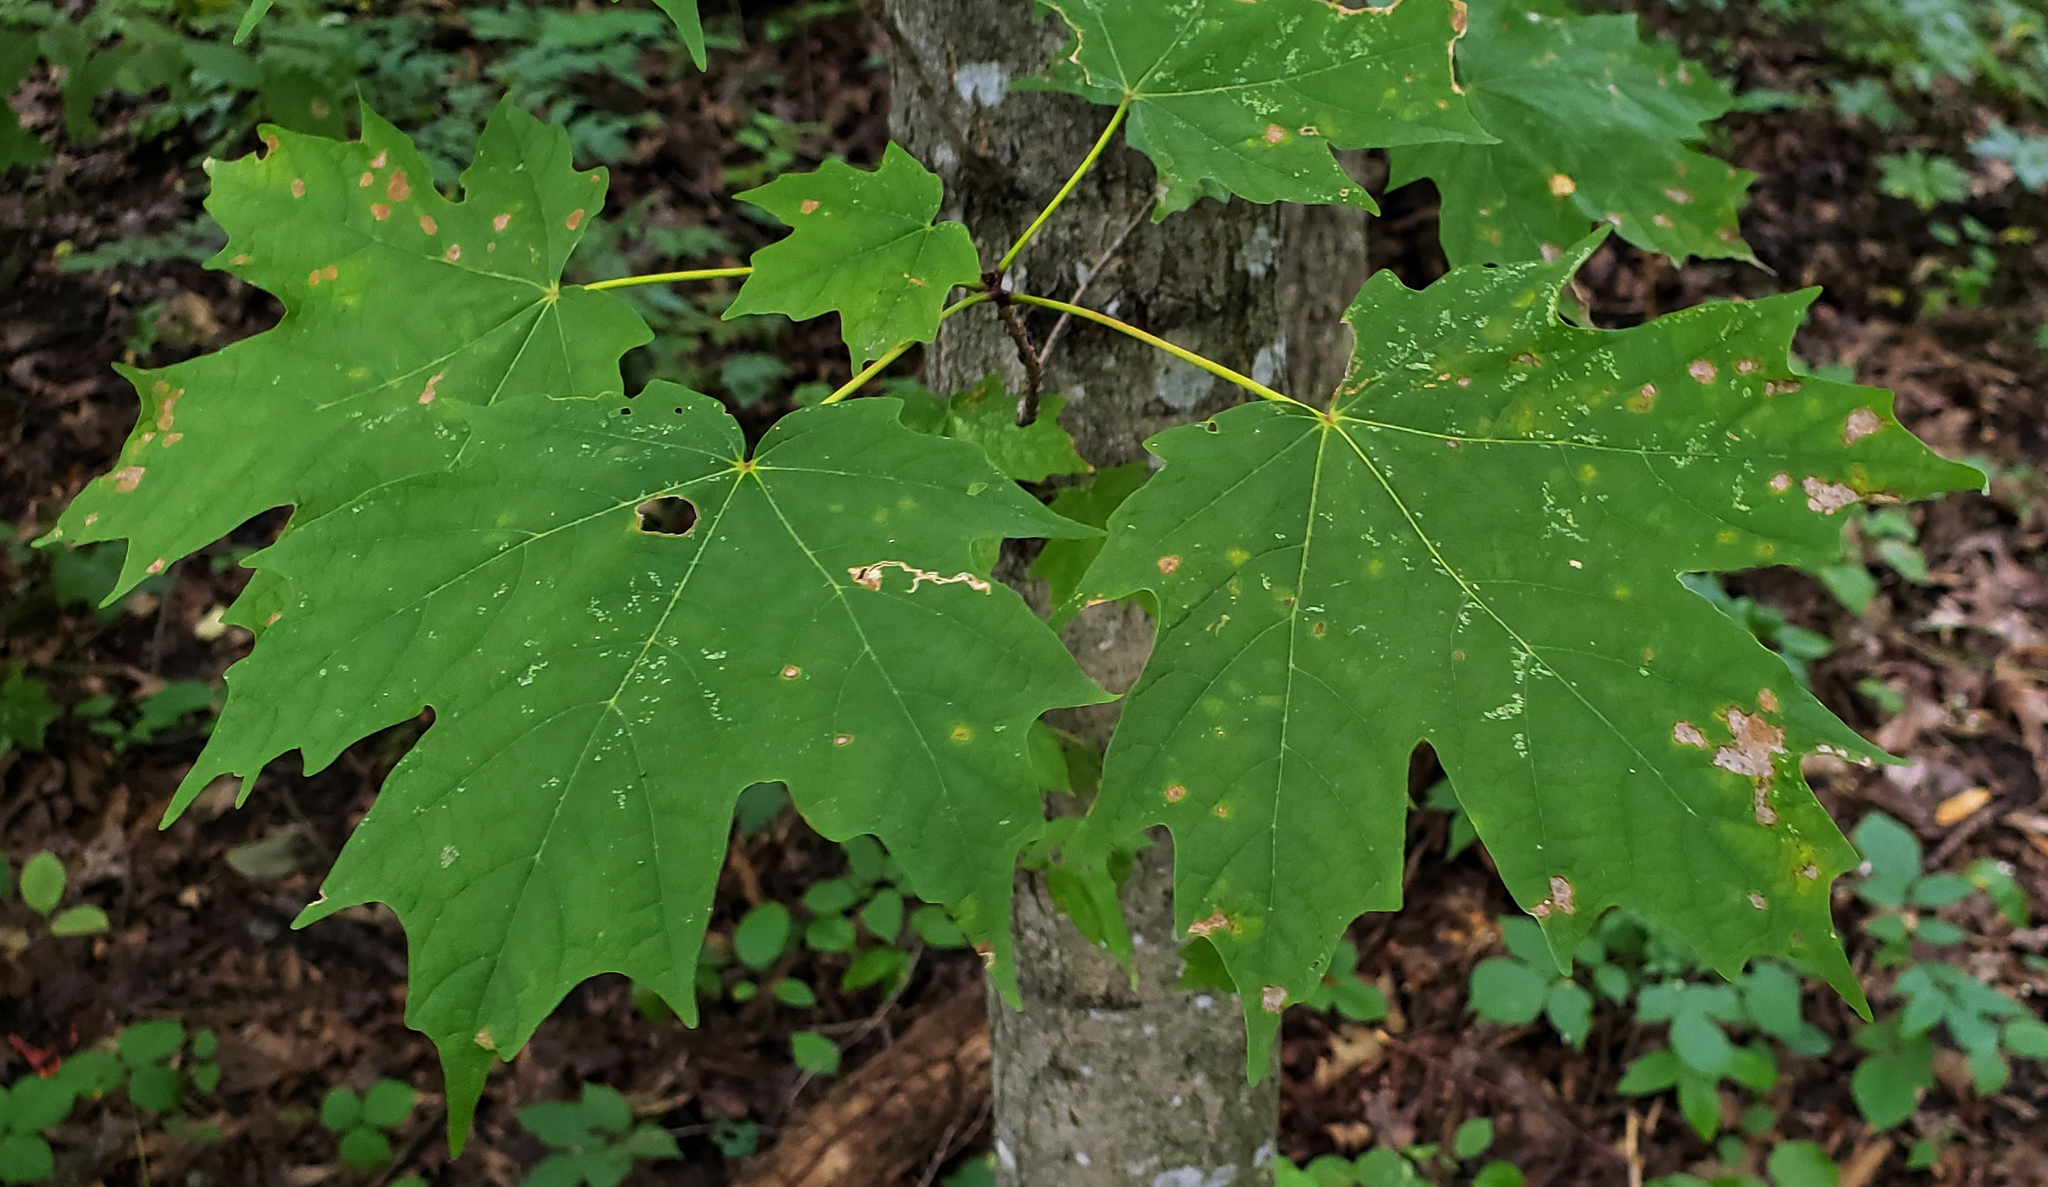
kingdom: Plantae
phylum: Tracheophyta
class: Magnoliopsida
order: Sapindales
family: Sapindaceae
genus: Acer
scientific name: Acer saccharum
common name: Sugar maple
